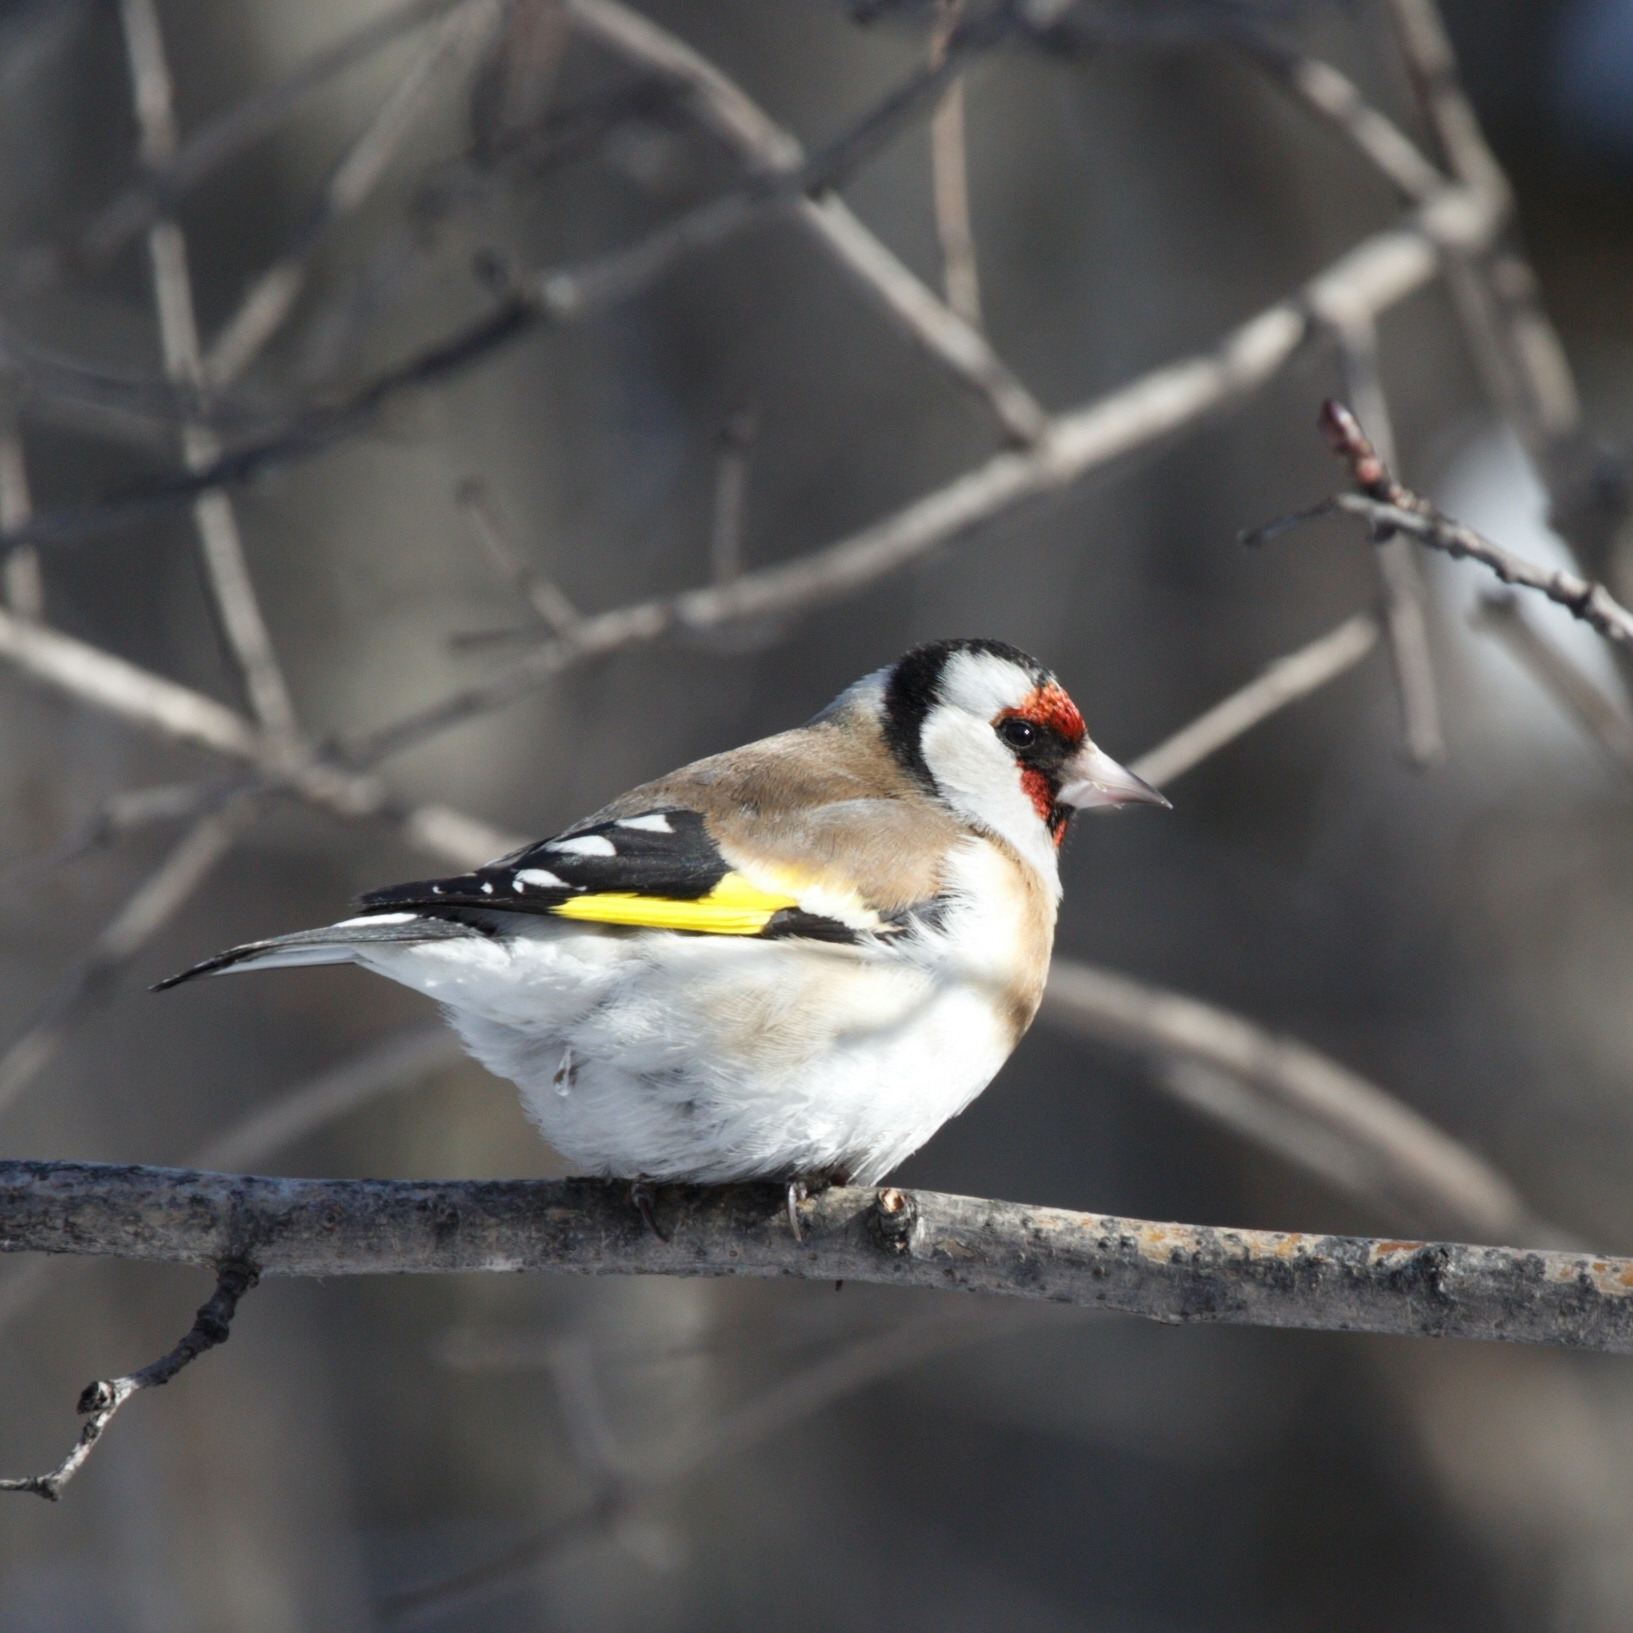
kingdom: Animalia
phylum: Chordata
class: Aves
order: Passeriformes
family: Fringillidae
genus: Carduelis
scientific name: Carduelis carduelis
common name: European goldfinch
